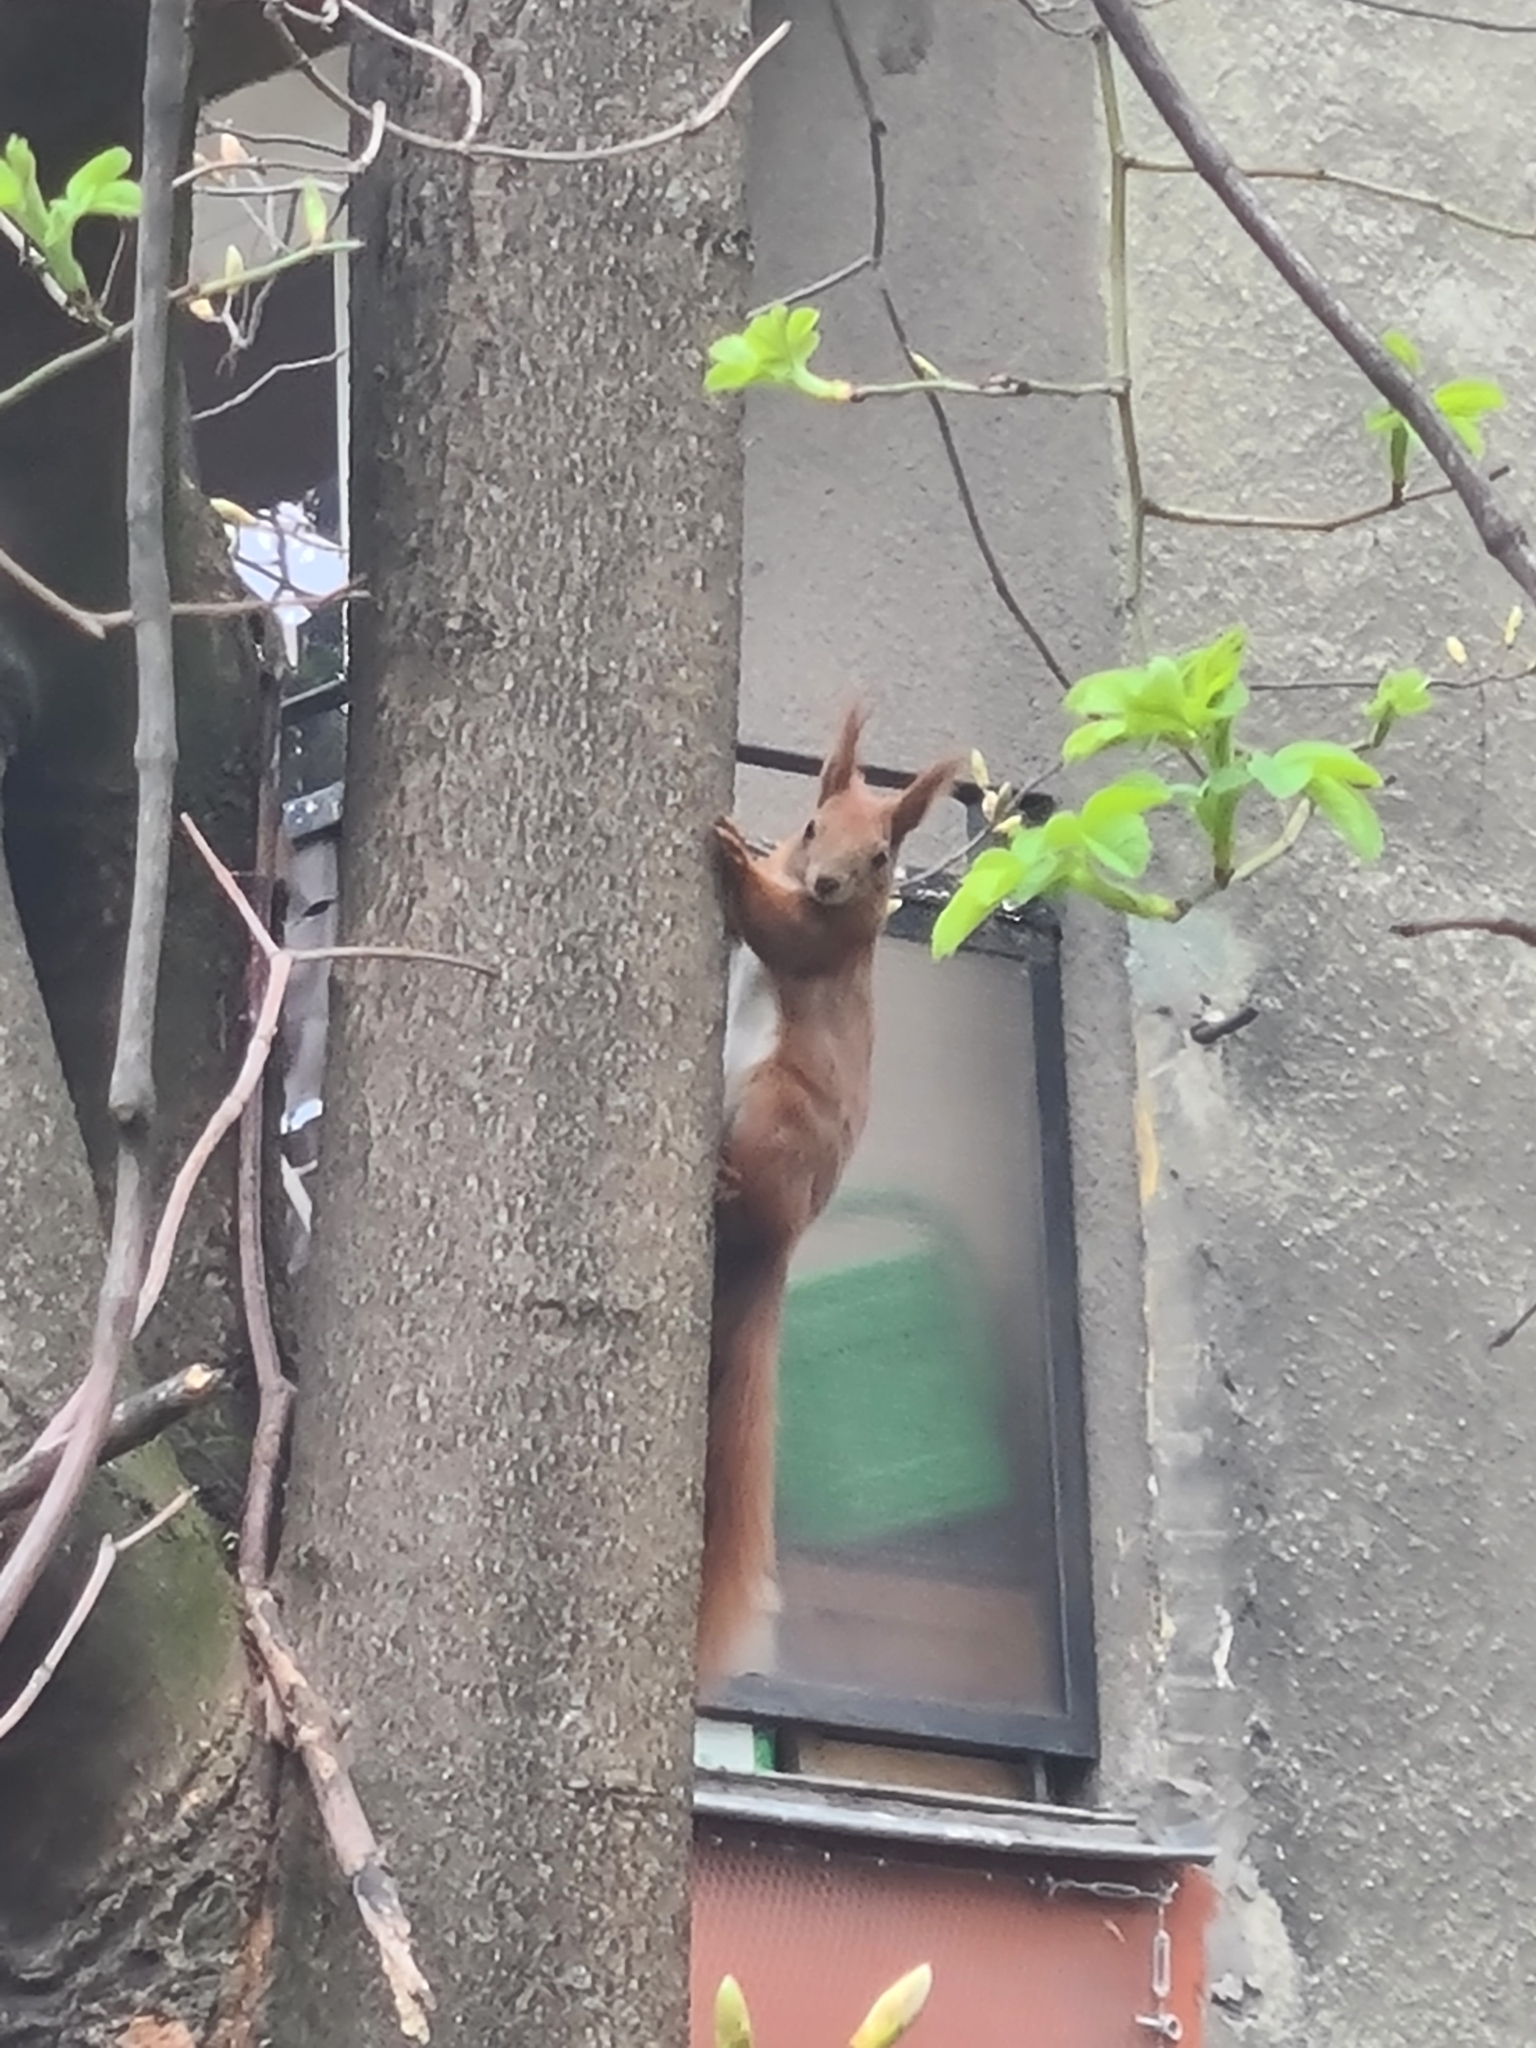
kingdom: Animalia
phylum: Chordata
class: Mammalia
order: Rodentia
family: Sciuridae
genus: Sciurus
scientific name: Sciurus vulgaris
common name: Eurasian red squirrel
